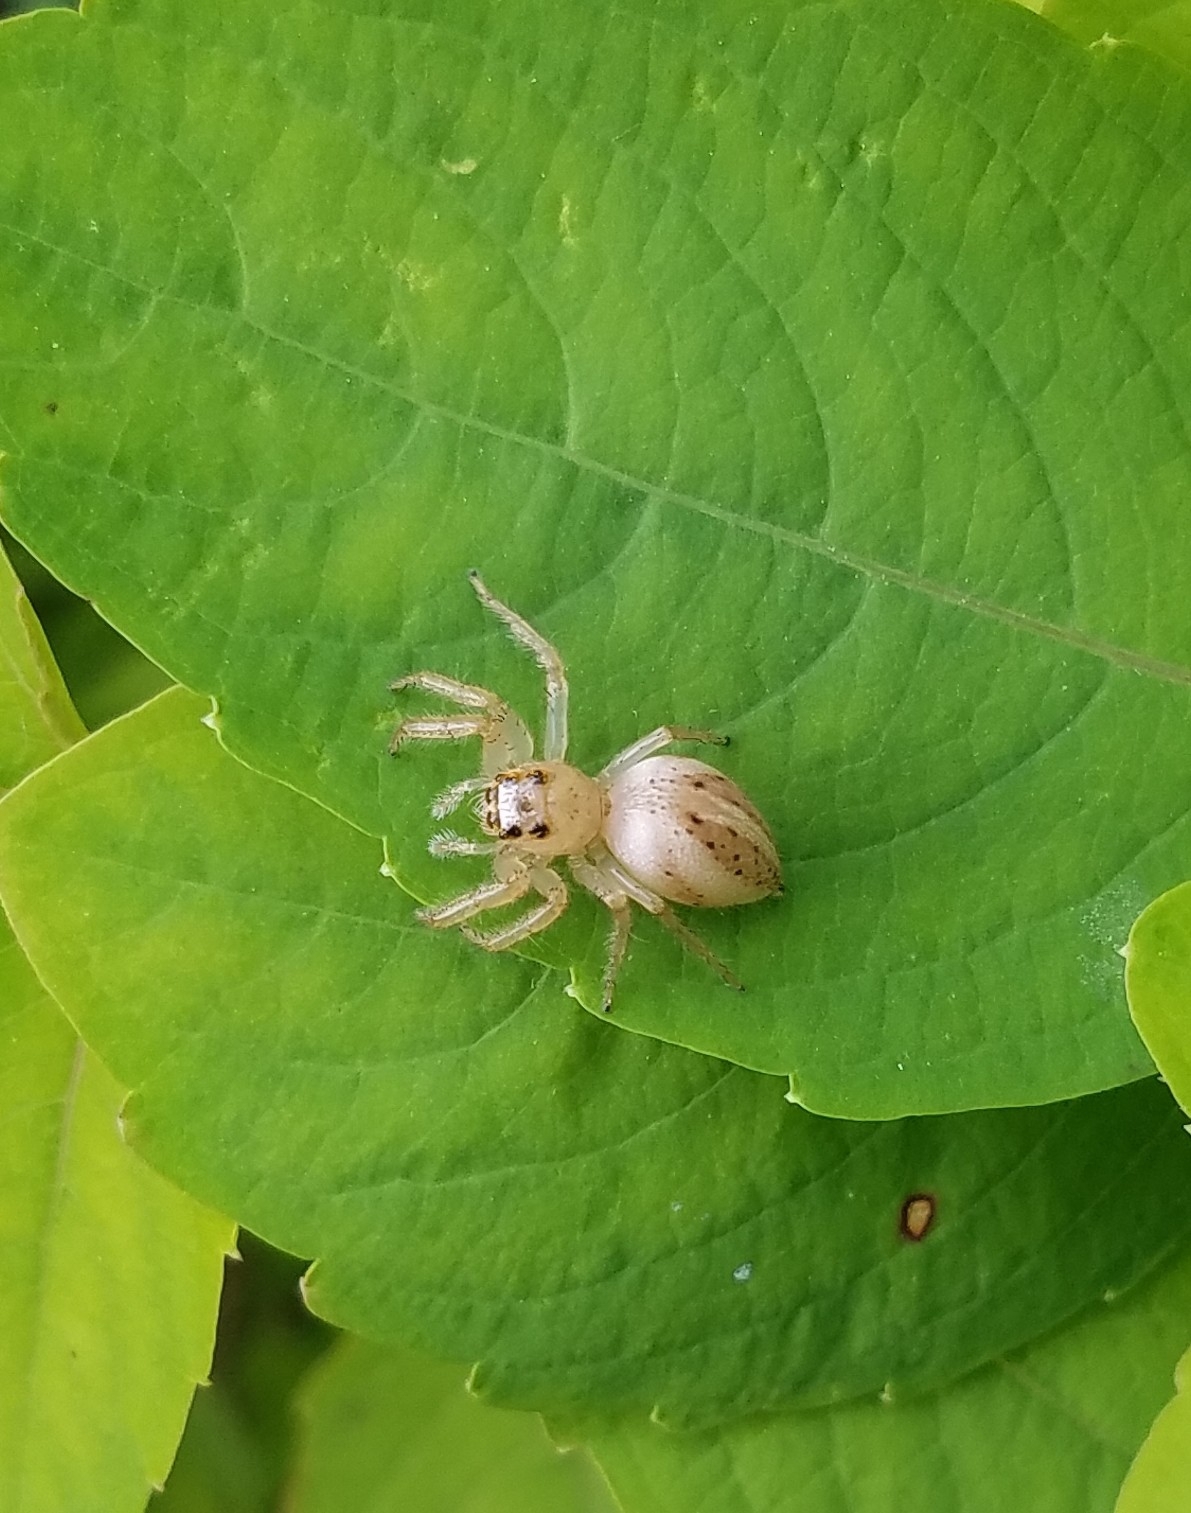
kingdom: Animalia
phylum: Arthropoda
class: Arachnida
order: Araneae
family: Salticidae
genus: Colonus
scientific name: Colonus sylvanus
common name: Jumping spiders
